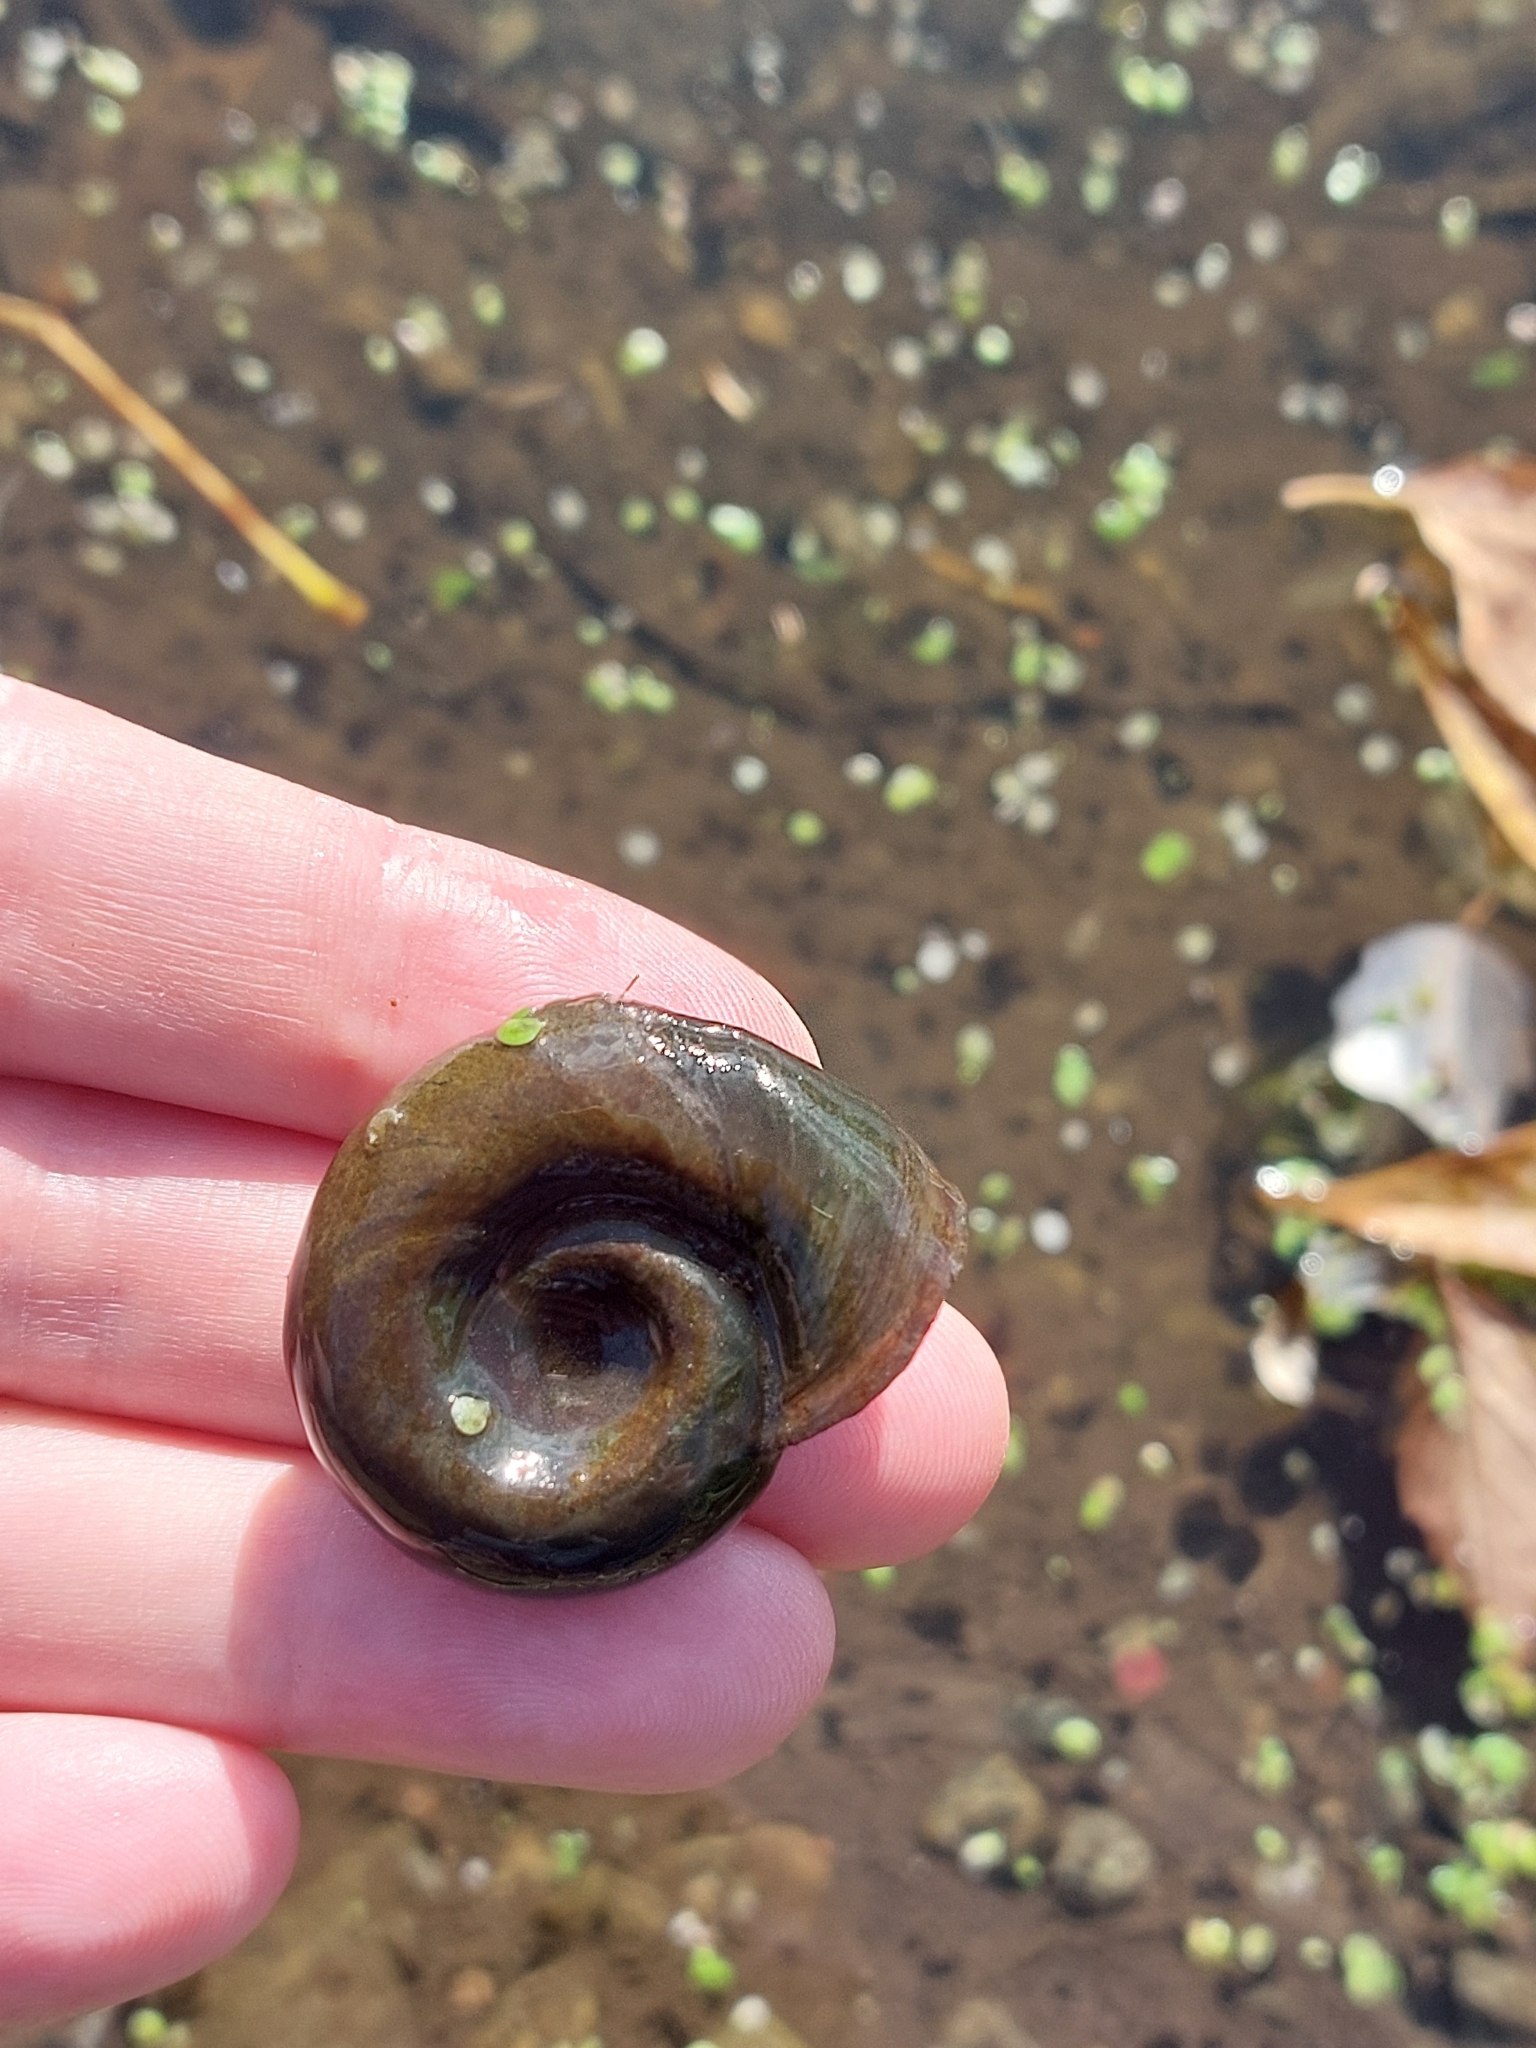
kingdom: Animalia
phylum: Mollusca
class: Gastropoda
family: Planorbidae
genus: Planorbarius
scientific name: Planorbarius corneus
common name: Great ramshorn
